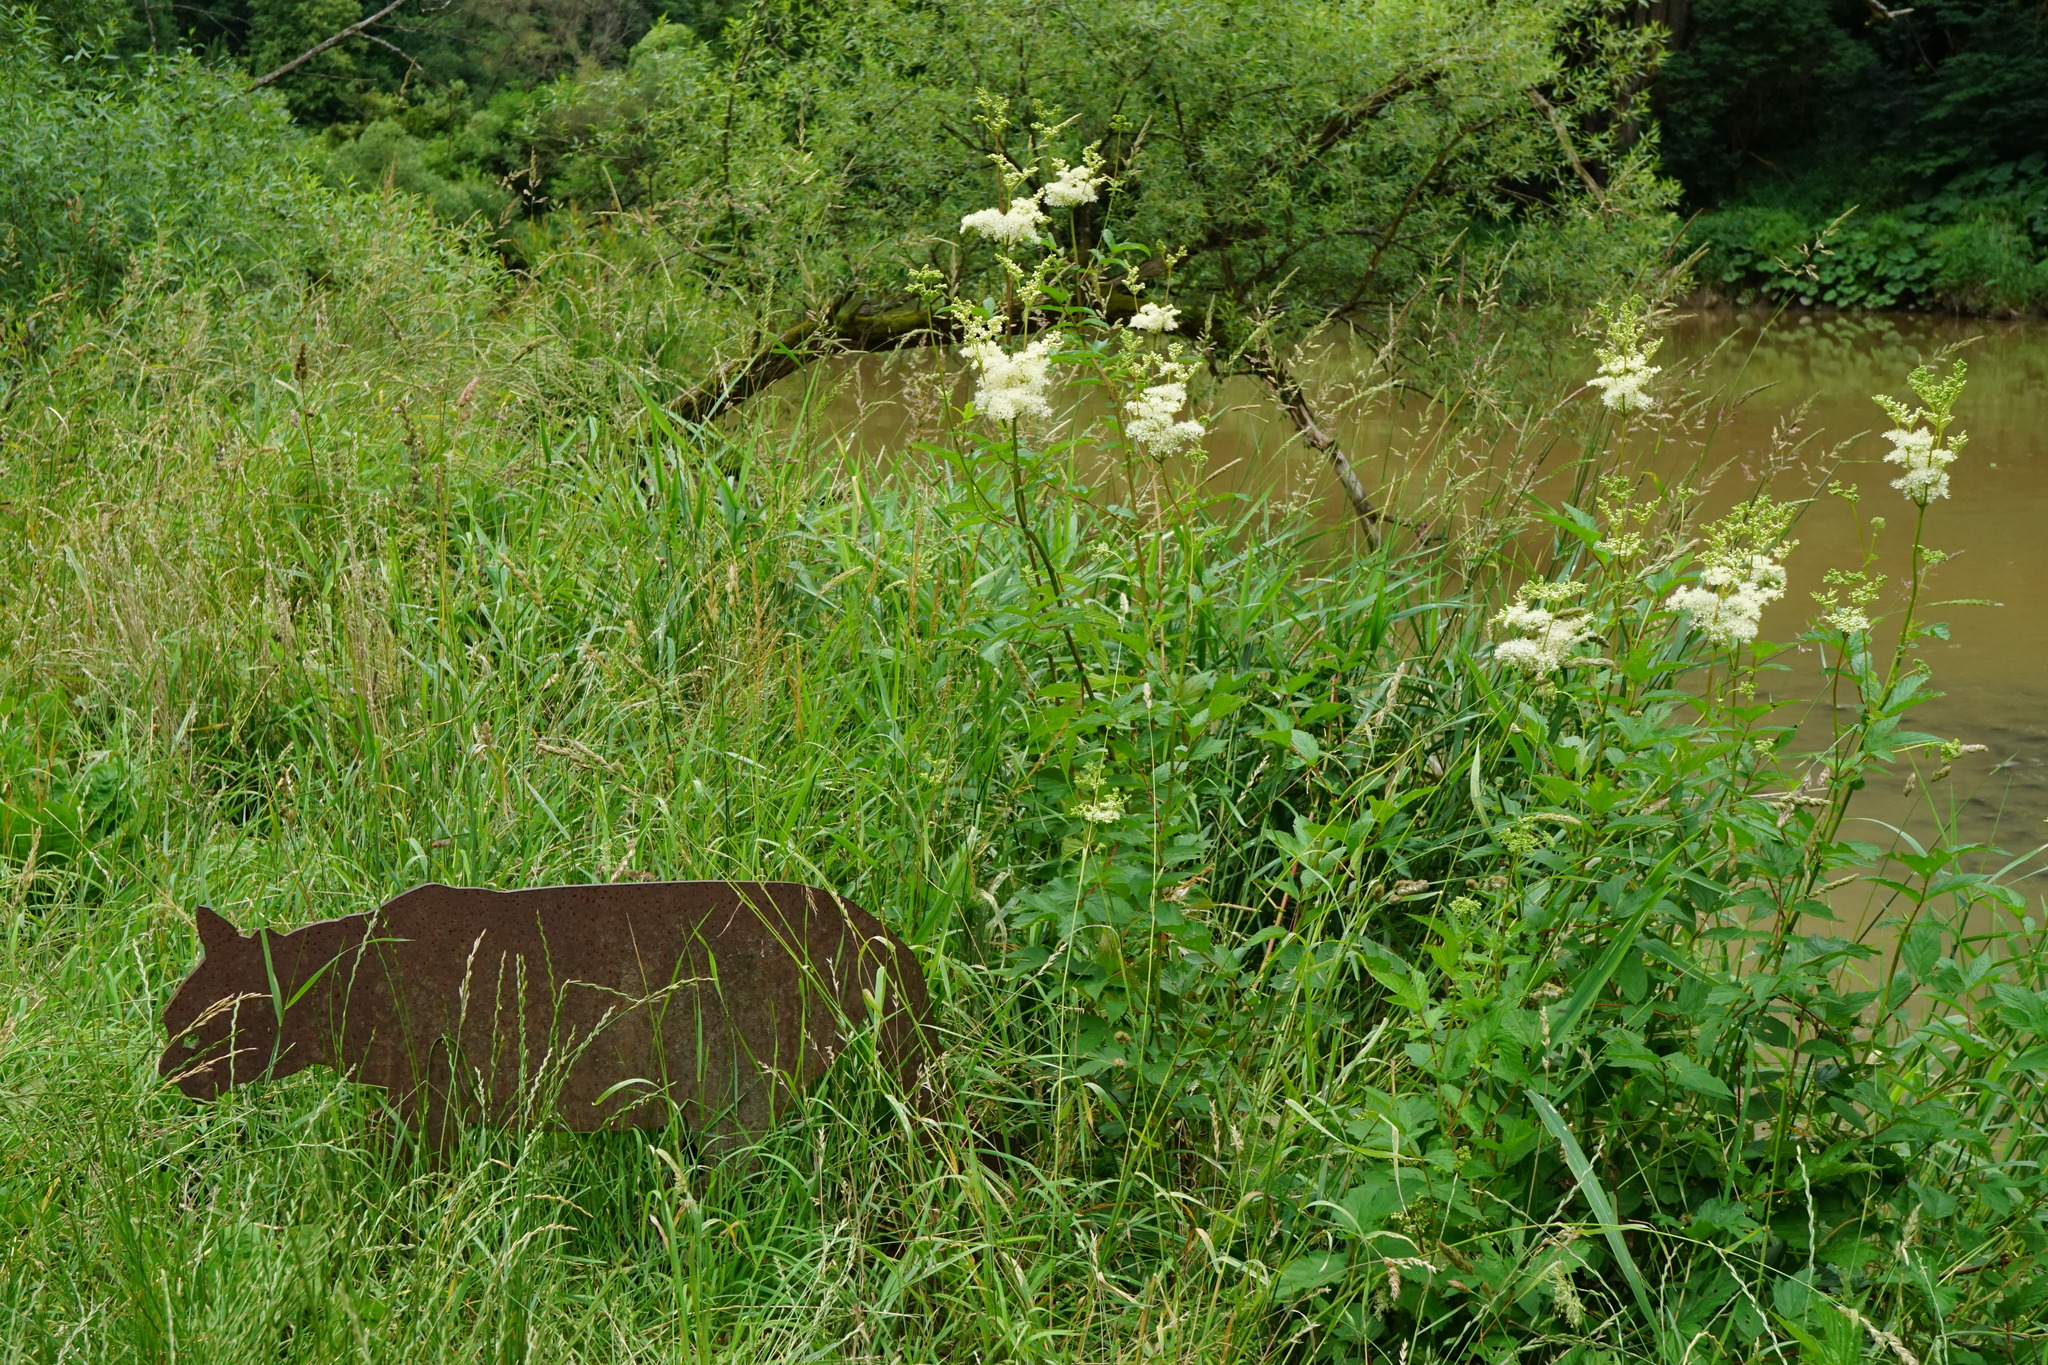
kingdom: Plantae
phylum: Tracheophyta
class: Magnoliopsida
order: Rosales
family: Rosaceae
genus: Filipendula
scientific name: Filipendula ulmaria
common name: Meadowsweet
